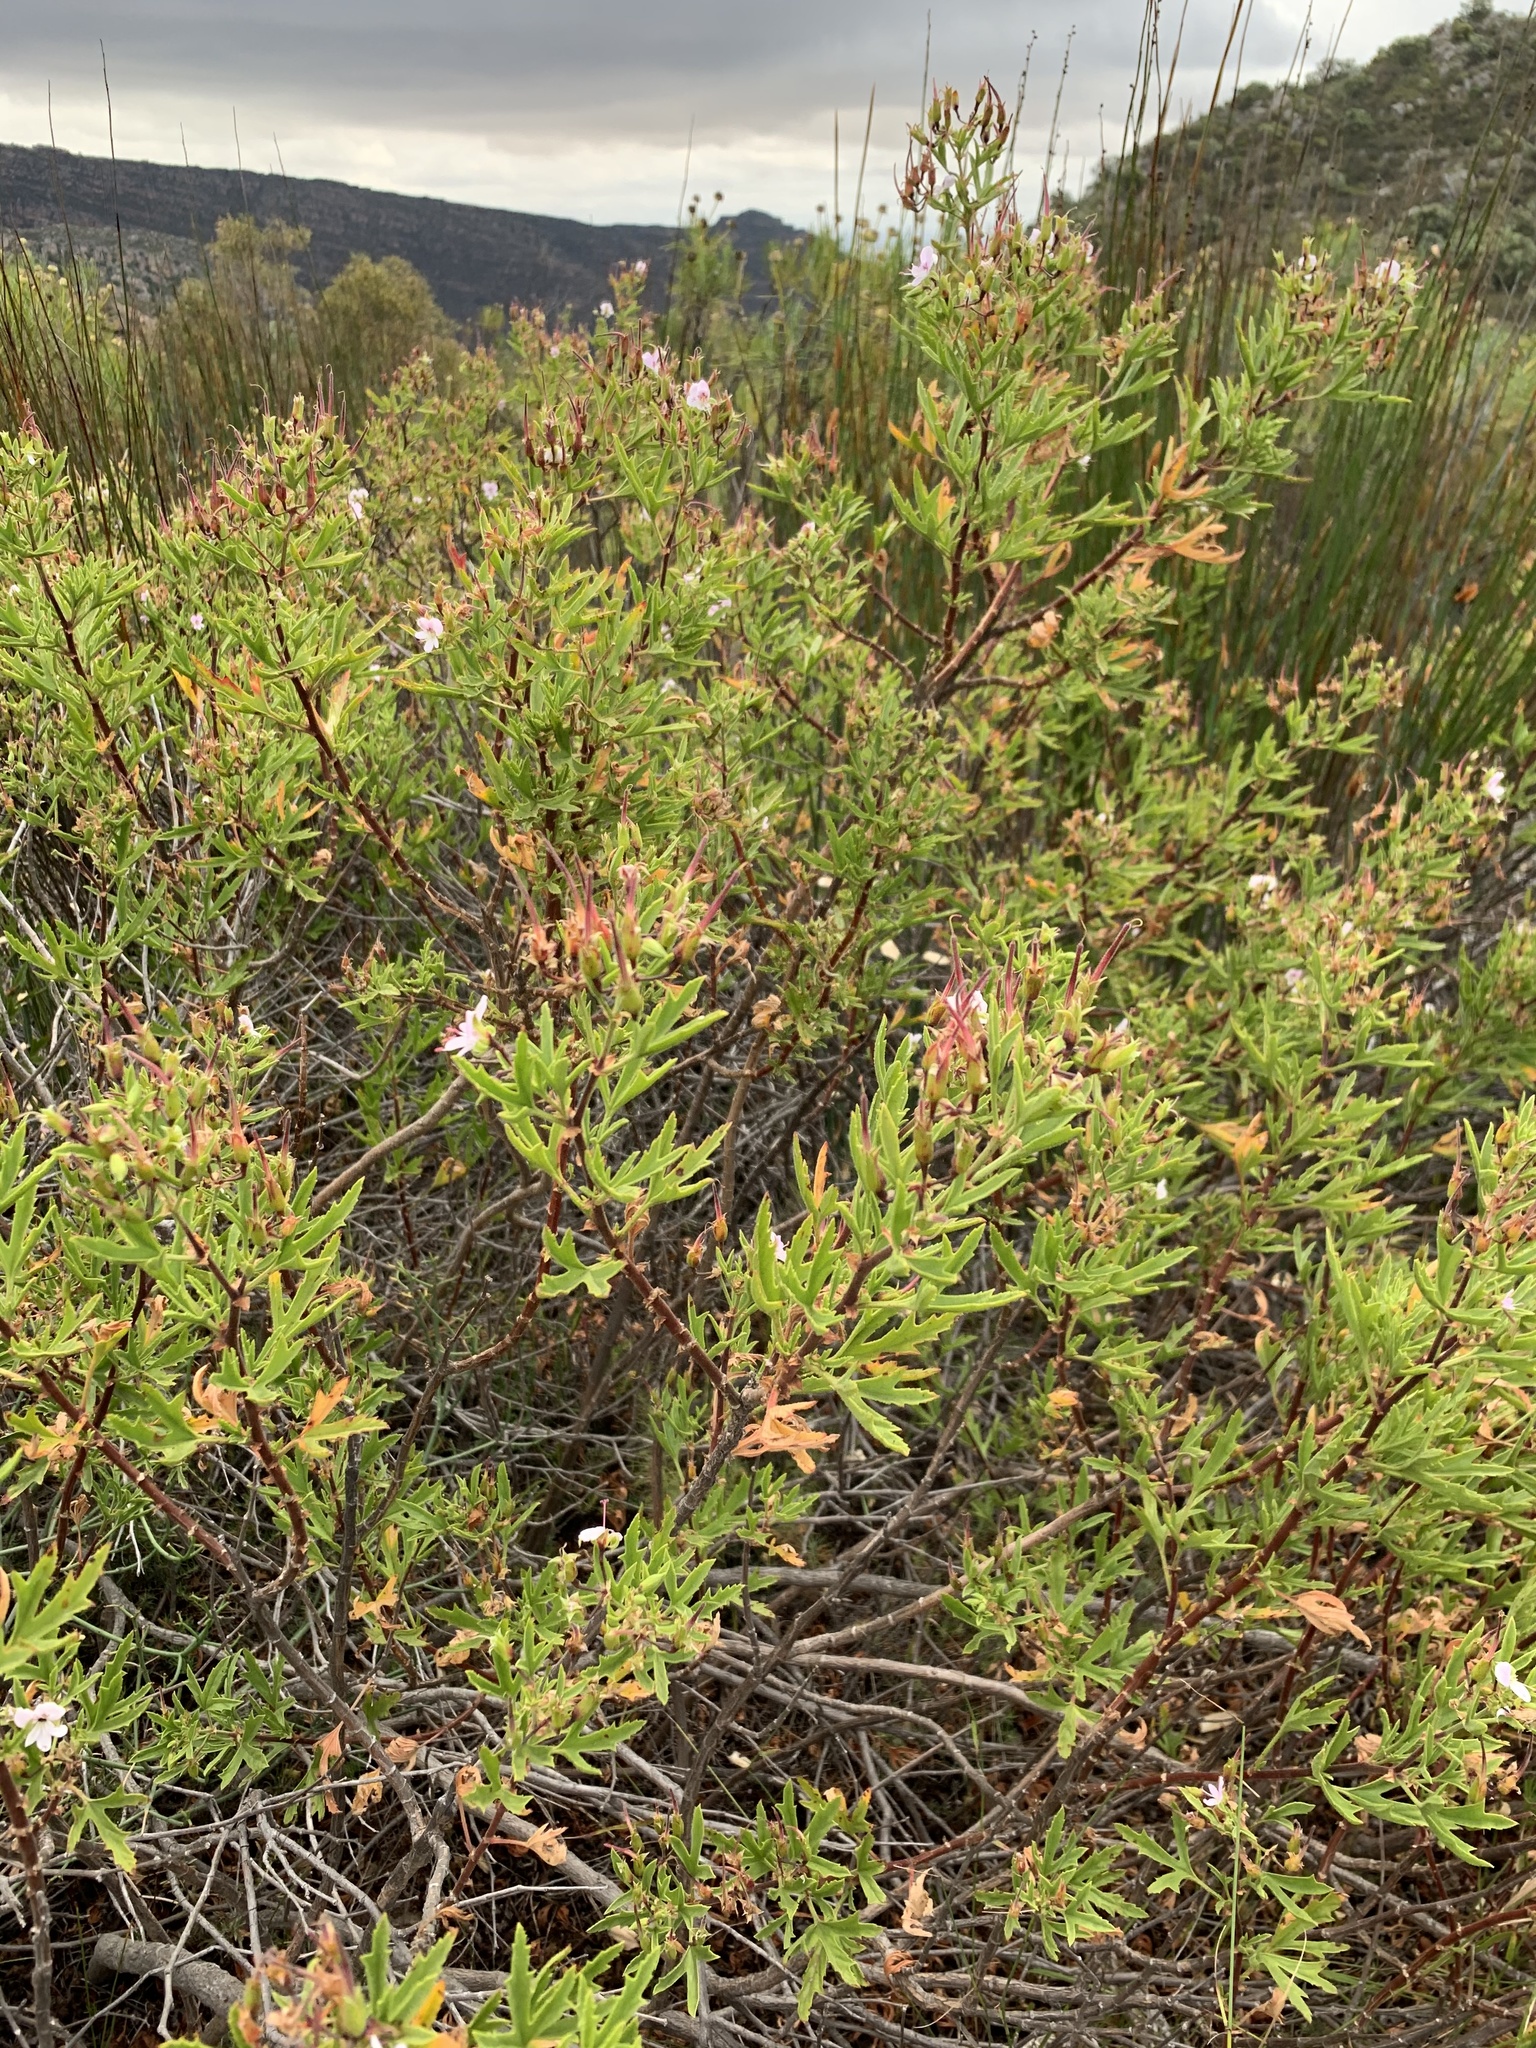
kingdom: Plantae
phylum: Tracheophyta
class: Magnoliopsida
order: Geraniales
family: Geraniaceae
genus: Pelargonium
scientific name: Pelargonium scabrum
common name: Apricot geranium
